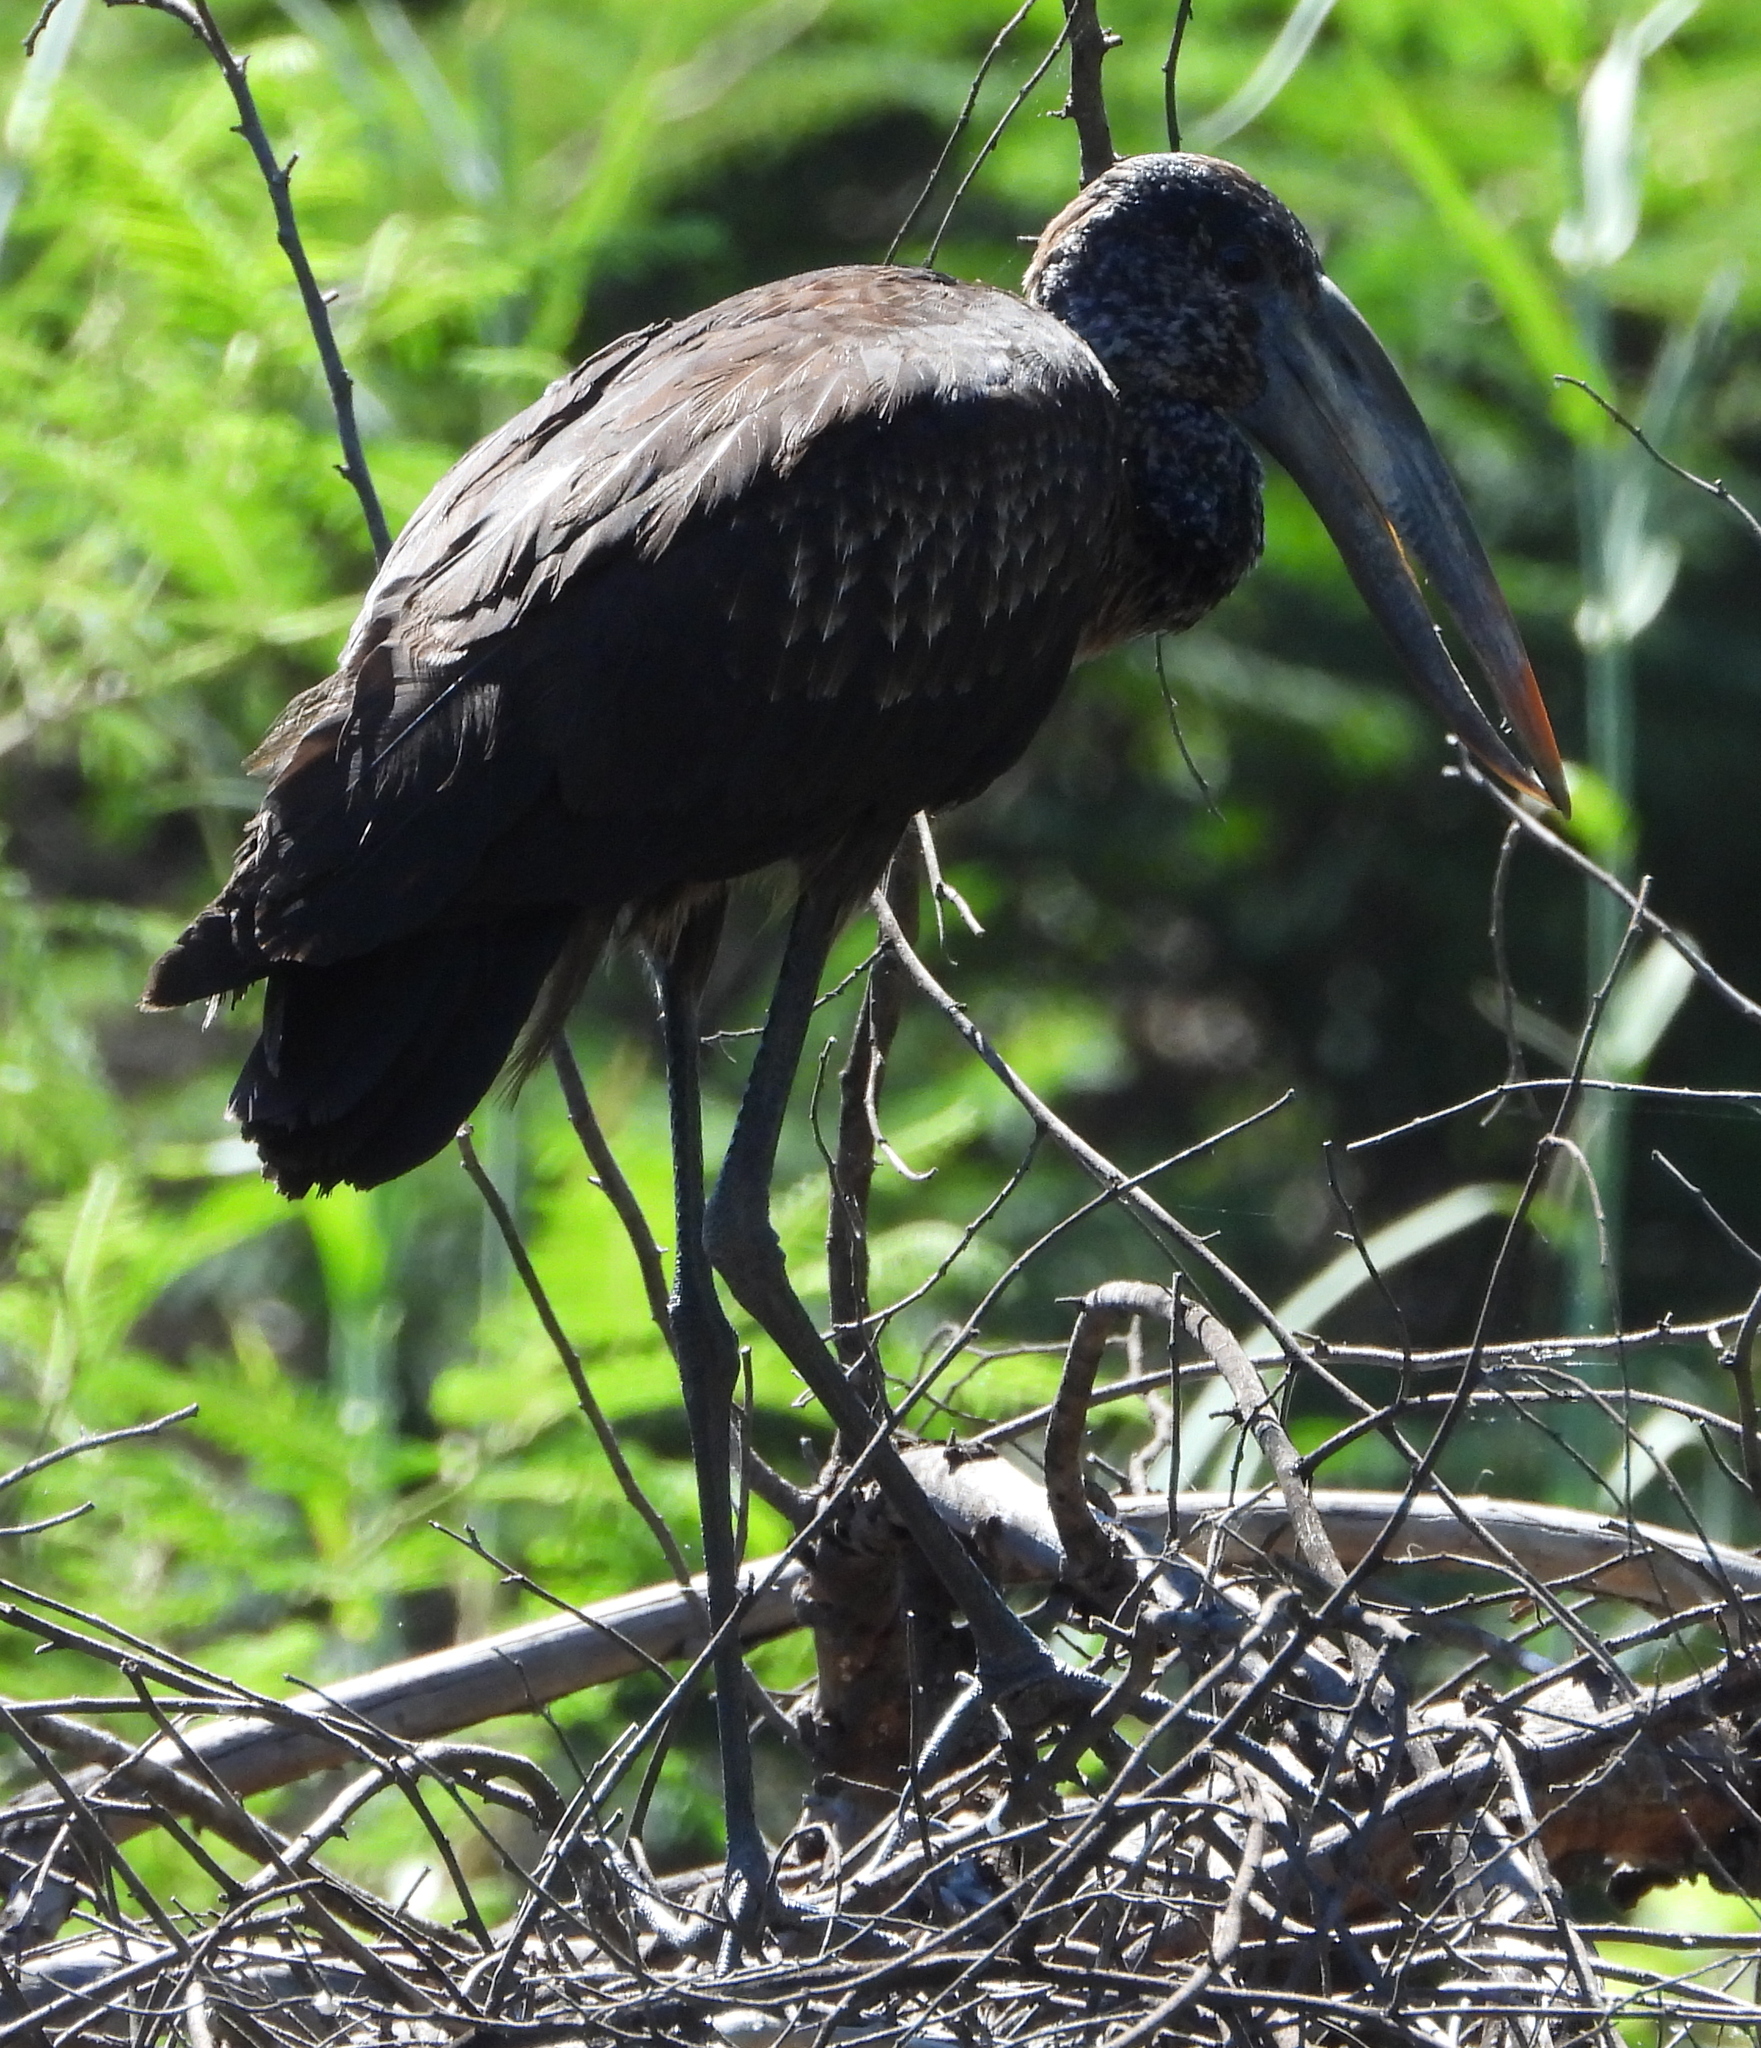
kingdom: Animalia
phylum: Chordata
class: Aves
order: Ciconiiformes
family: Ciconiidae
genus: Anastomus
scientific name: Anastomus lamelligerus
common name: African openbill
